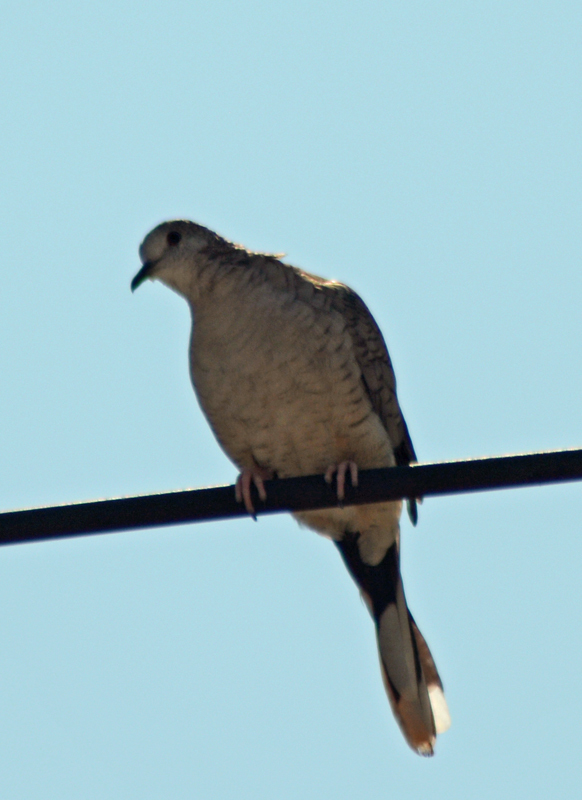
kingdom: Animalia
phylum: Chordata
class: Aves
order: Columbiformes
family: Columbidae
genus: Columbina
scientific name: Columbina inca
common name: Inca dove
